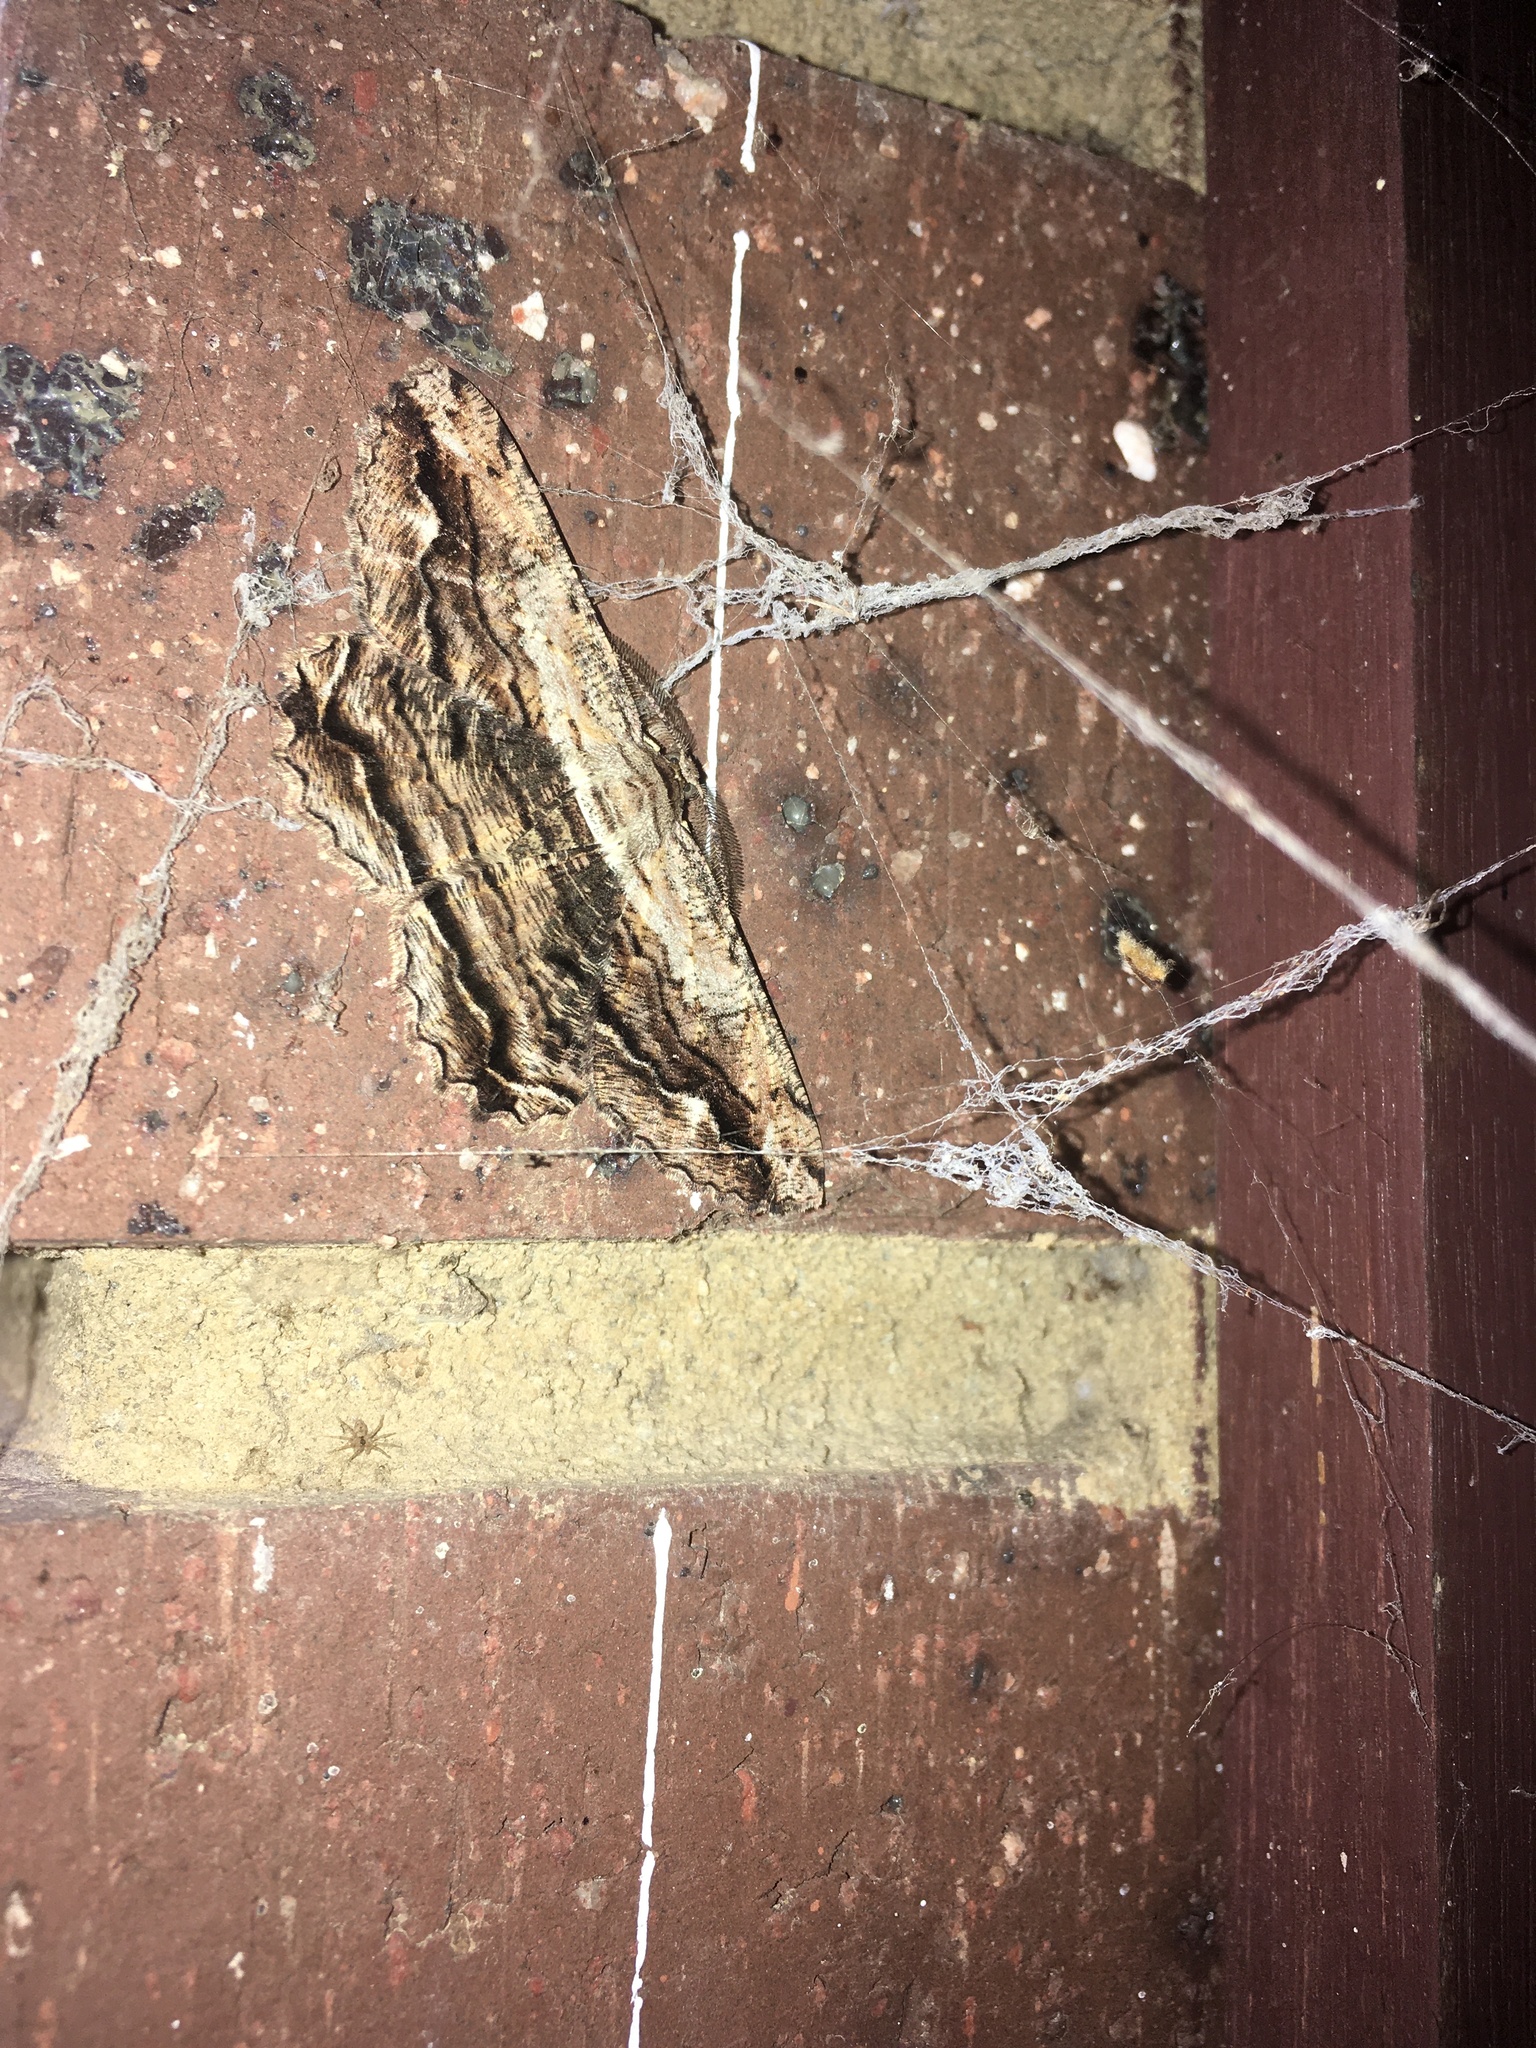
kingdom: Animalia
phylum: Arthropoda
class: Insecta
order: Lepidoptera
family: Geometridae
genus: Scioglyptis
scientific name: Scioglyptis lyciaria
